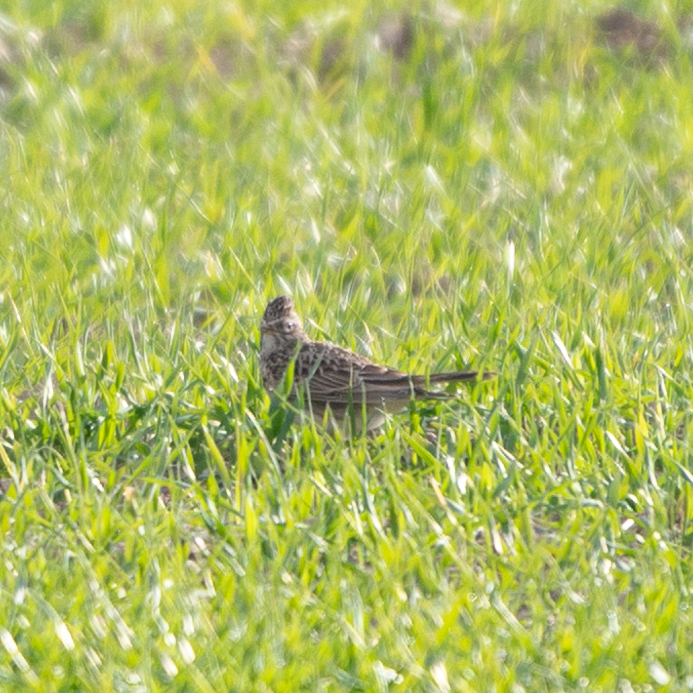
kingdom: Animalia
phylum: Chordata
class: Aves
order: Passeriformes
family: Alaudidae
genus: Alauda
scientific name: Alauda arvensis
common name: Eurasian skylark
